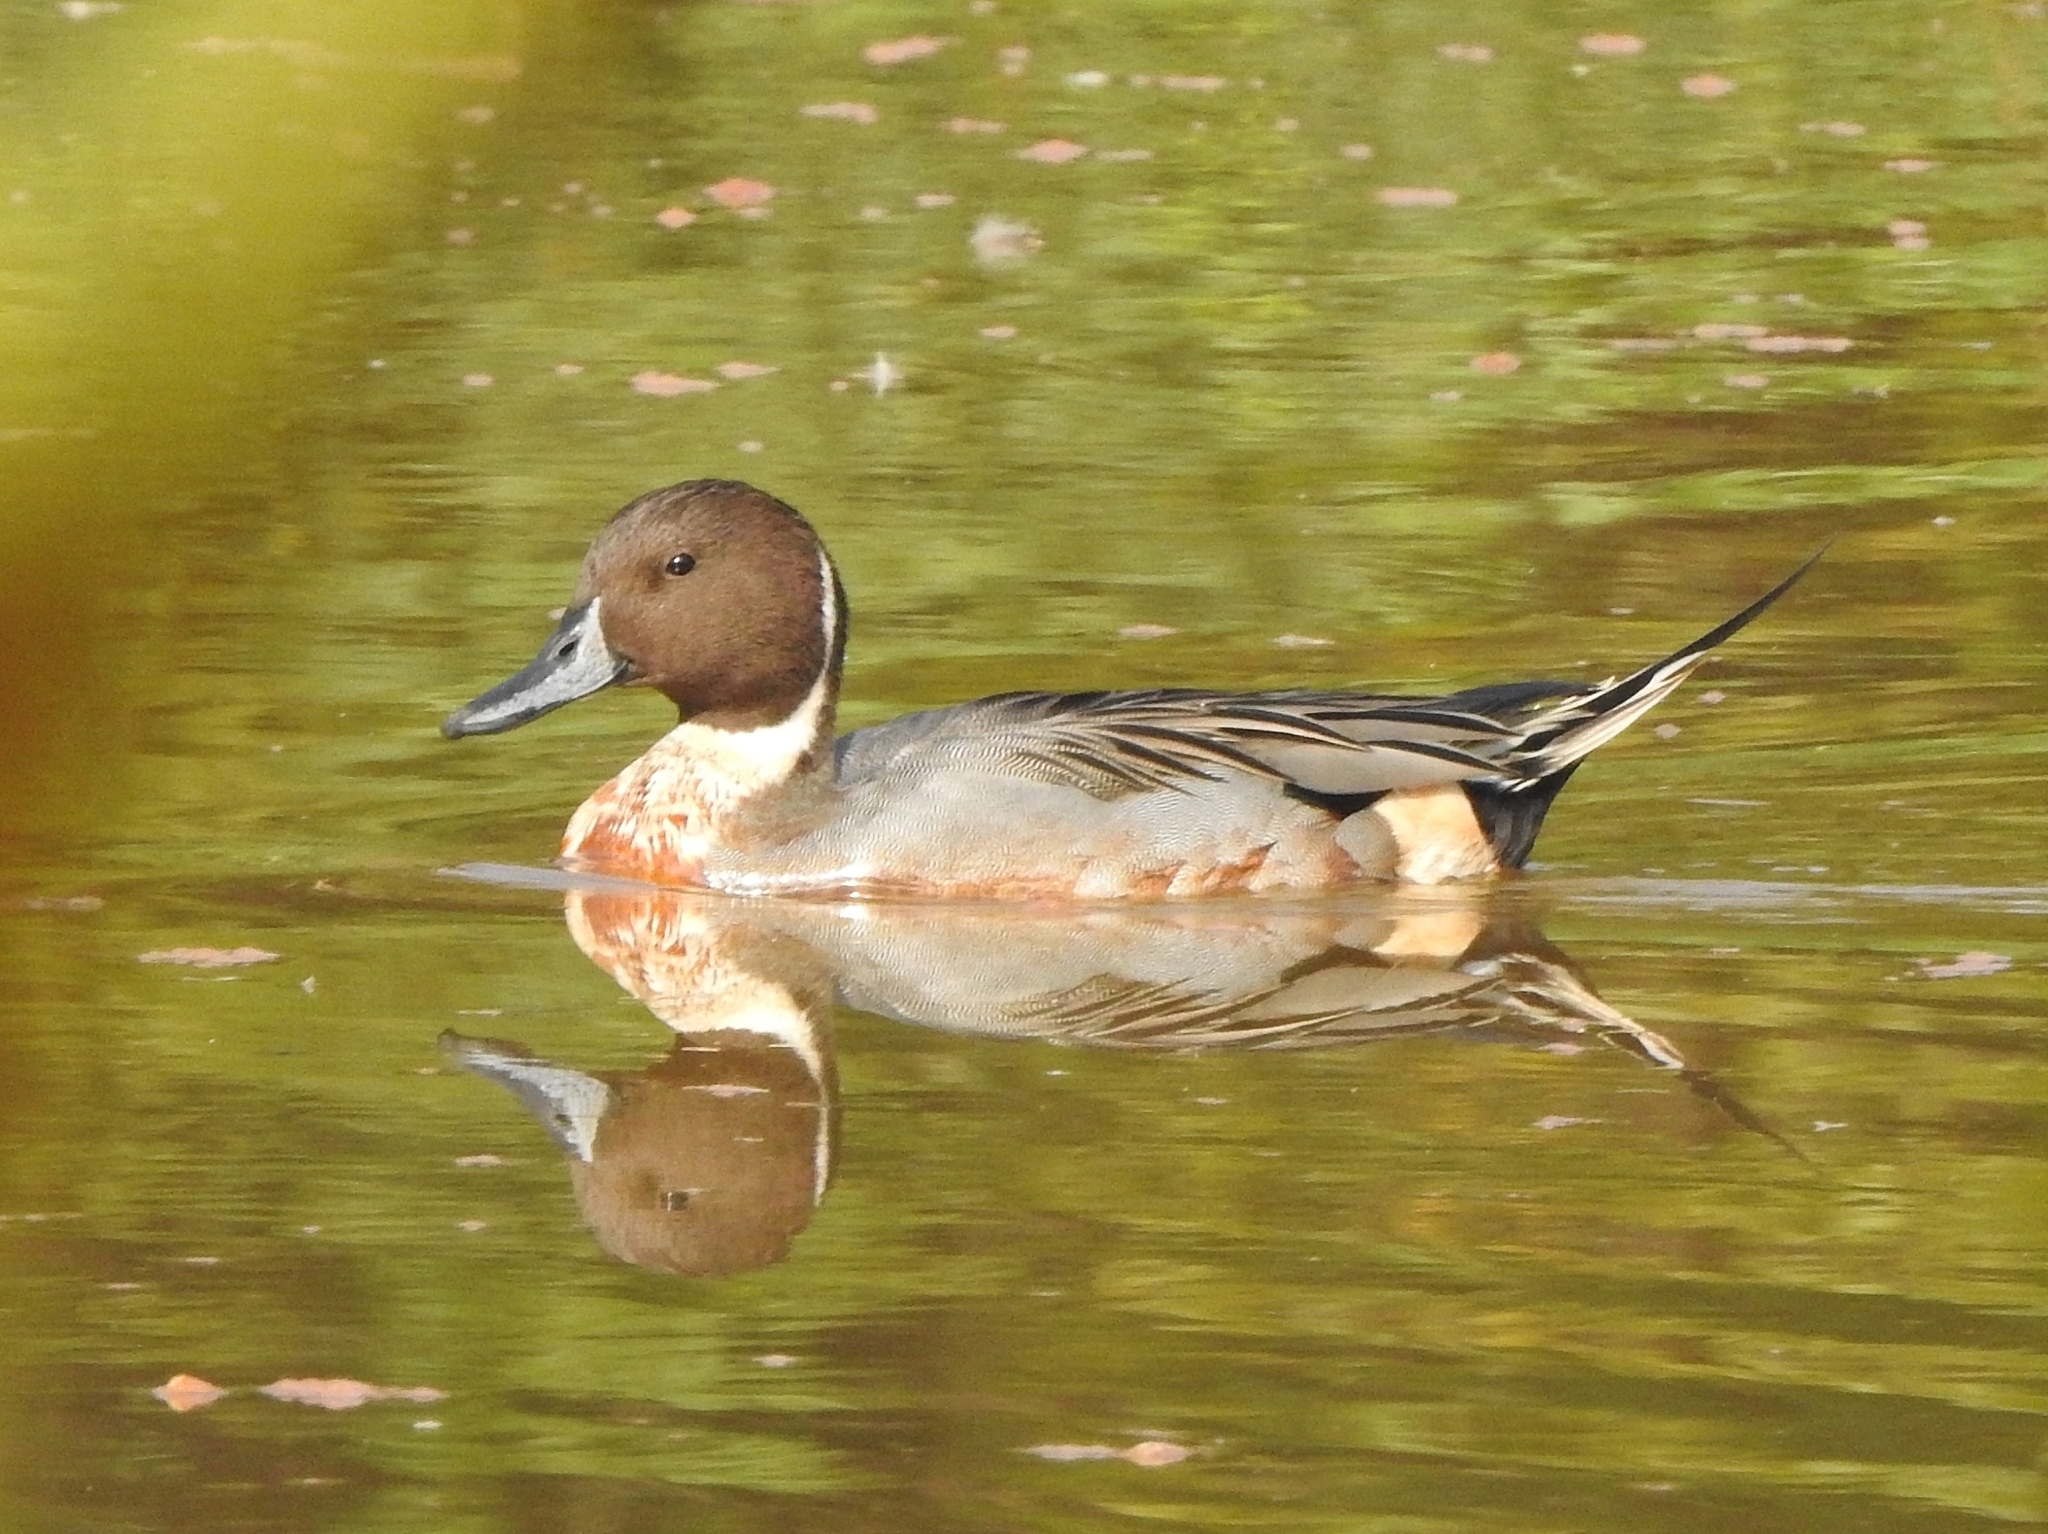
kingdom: Animalia
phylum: Chordata
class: Aves
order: Anseriformes
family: Anatidae
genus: Anas
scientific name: Anas acuta
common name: Northern pintail
